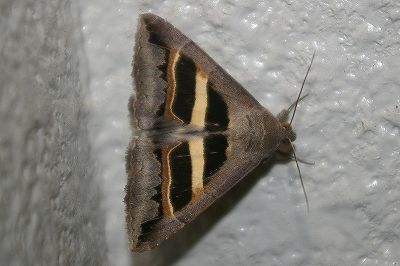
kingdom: Animalia
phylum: Arthropoda
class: Insecta
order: Lepidoptera
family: Erebidae
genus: Grammodes
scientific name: Grammodes geometrica
